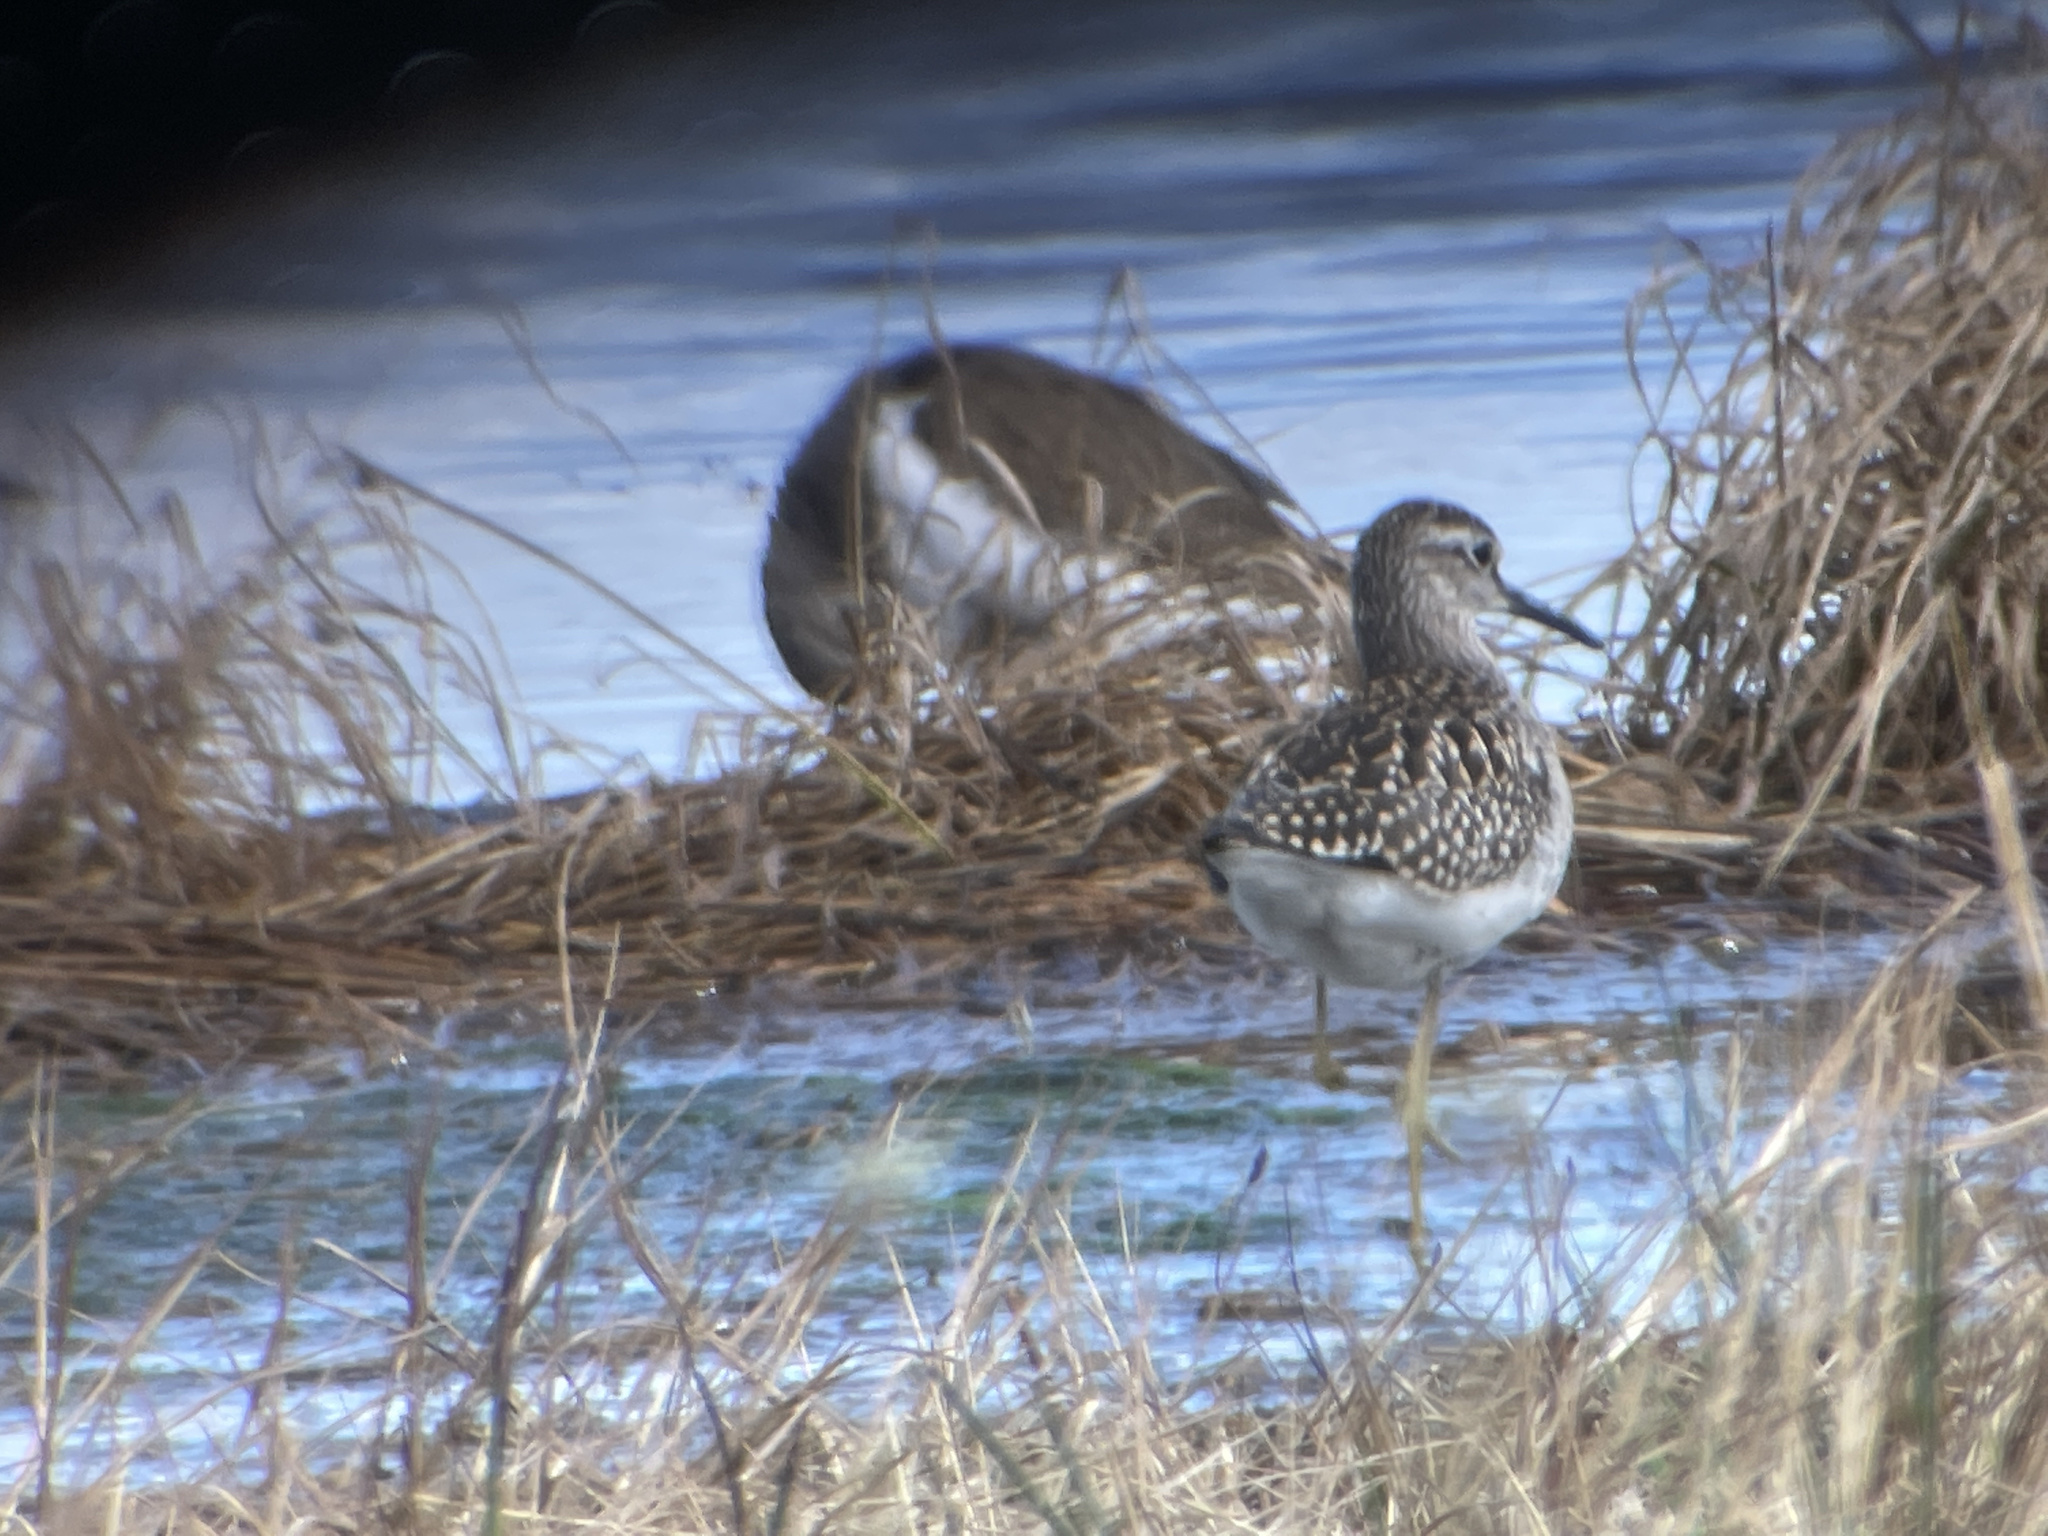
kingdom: Animalia
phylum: Chordata
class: Aves
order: Charadriiformes
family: Scolopacidae
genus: Tringa
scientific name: Tringa glareola
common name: Wood sandpiper
